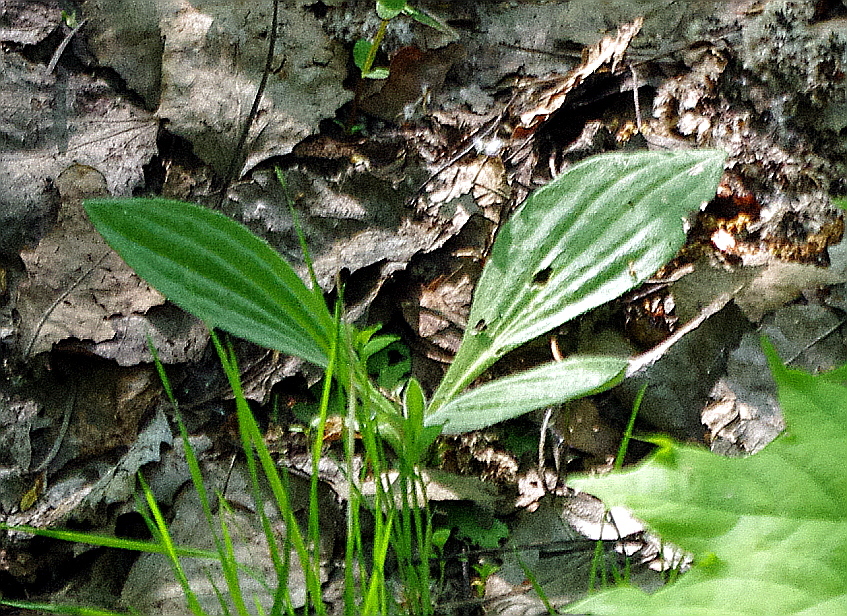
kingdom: Plantae
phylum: Tracheophyta
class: Magnoliopsida
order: Lamiales
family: Plantaginaceae
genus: Plantago
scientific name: Plantago media
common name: Hoary plantain
